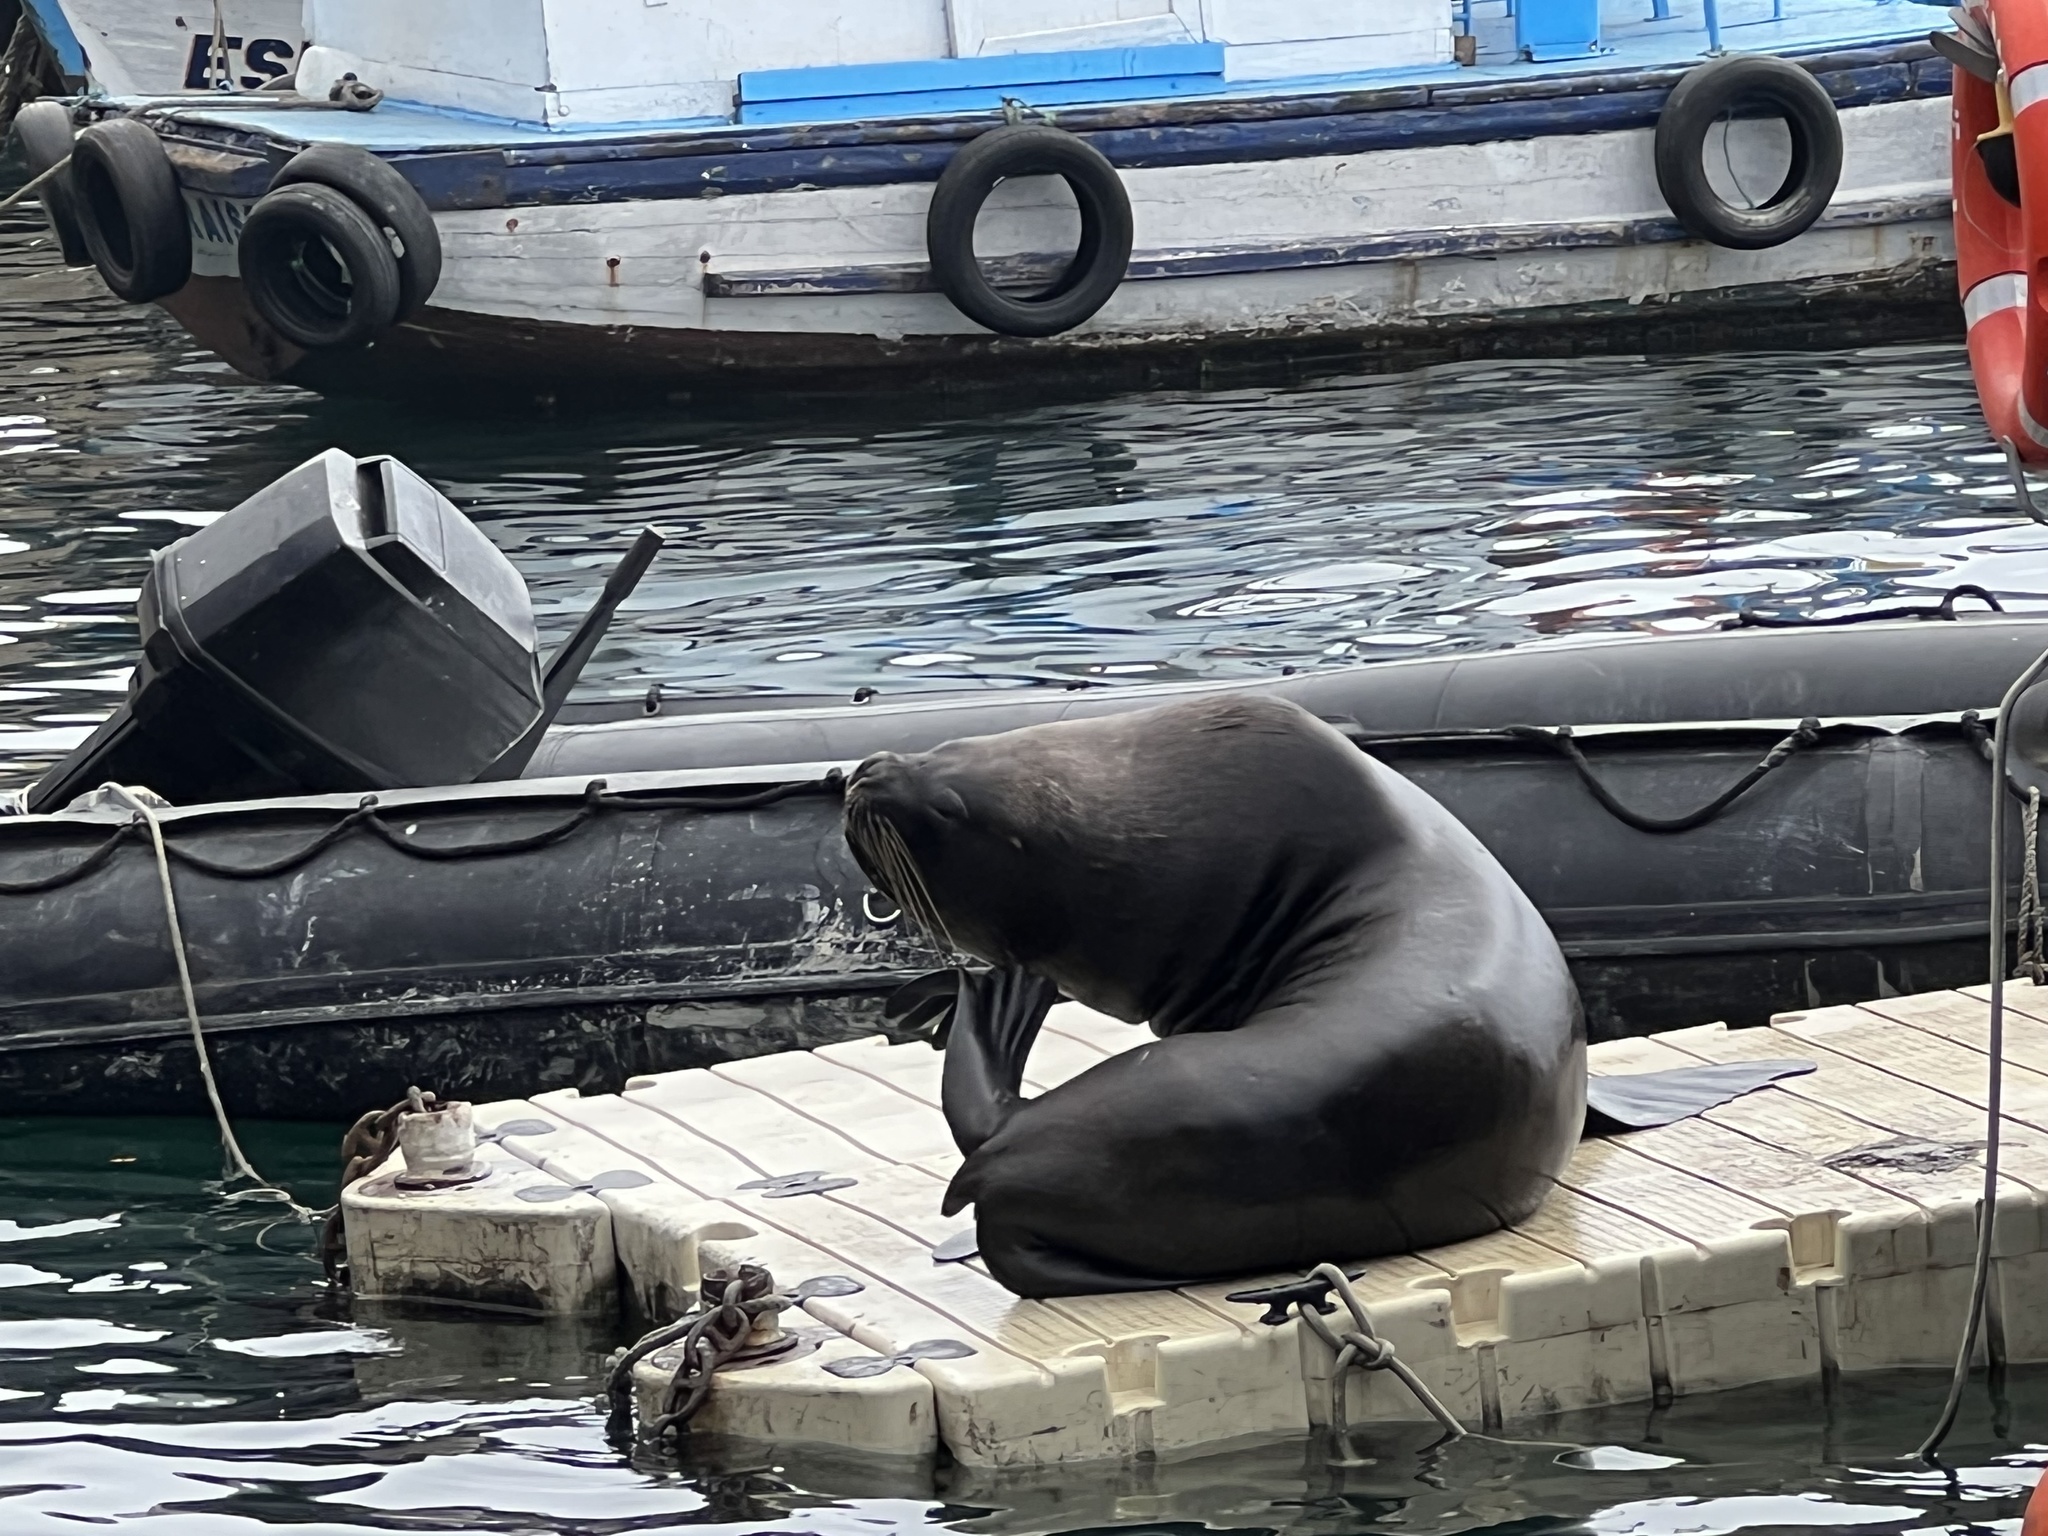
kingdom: Animalia
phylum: Chordata
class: Mammalia
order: Carnivora
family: Otariidae
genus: Otaria
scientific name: Otaria byronia
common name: South american sea lion
